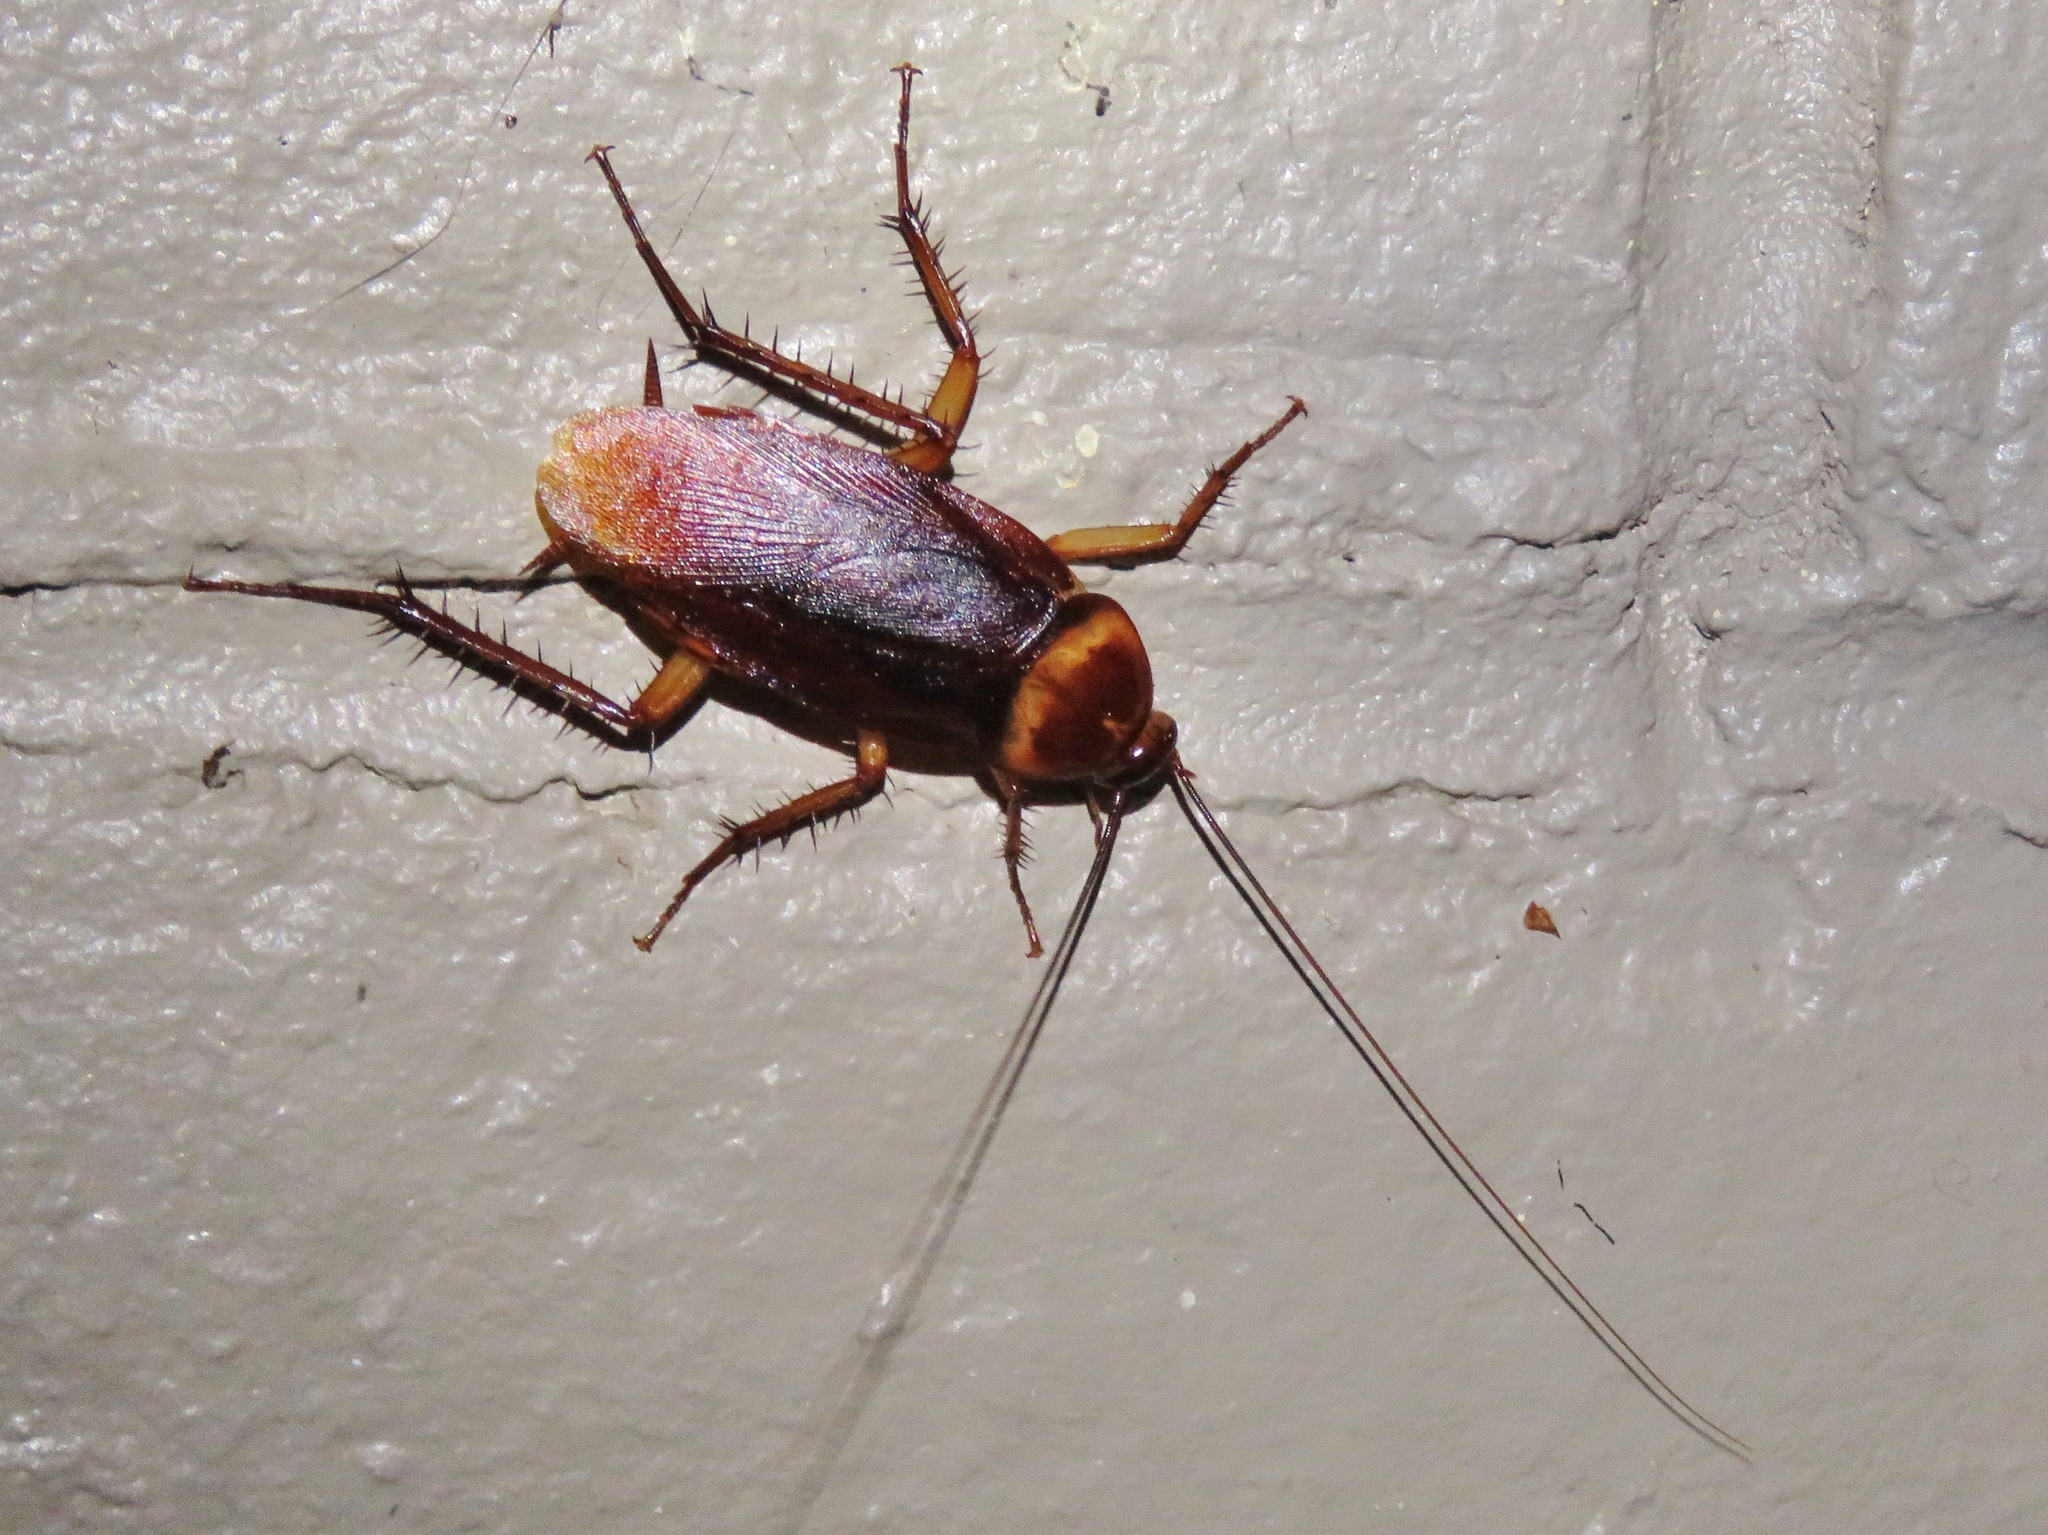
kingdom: Animalia
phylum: Arthropoda
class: Insecta
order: Blattodea
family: Blattidae
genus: Periplaneta
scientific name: Periplaneta americana
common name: American cockroach
